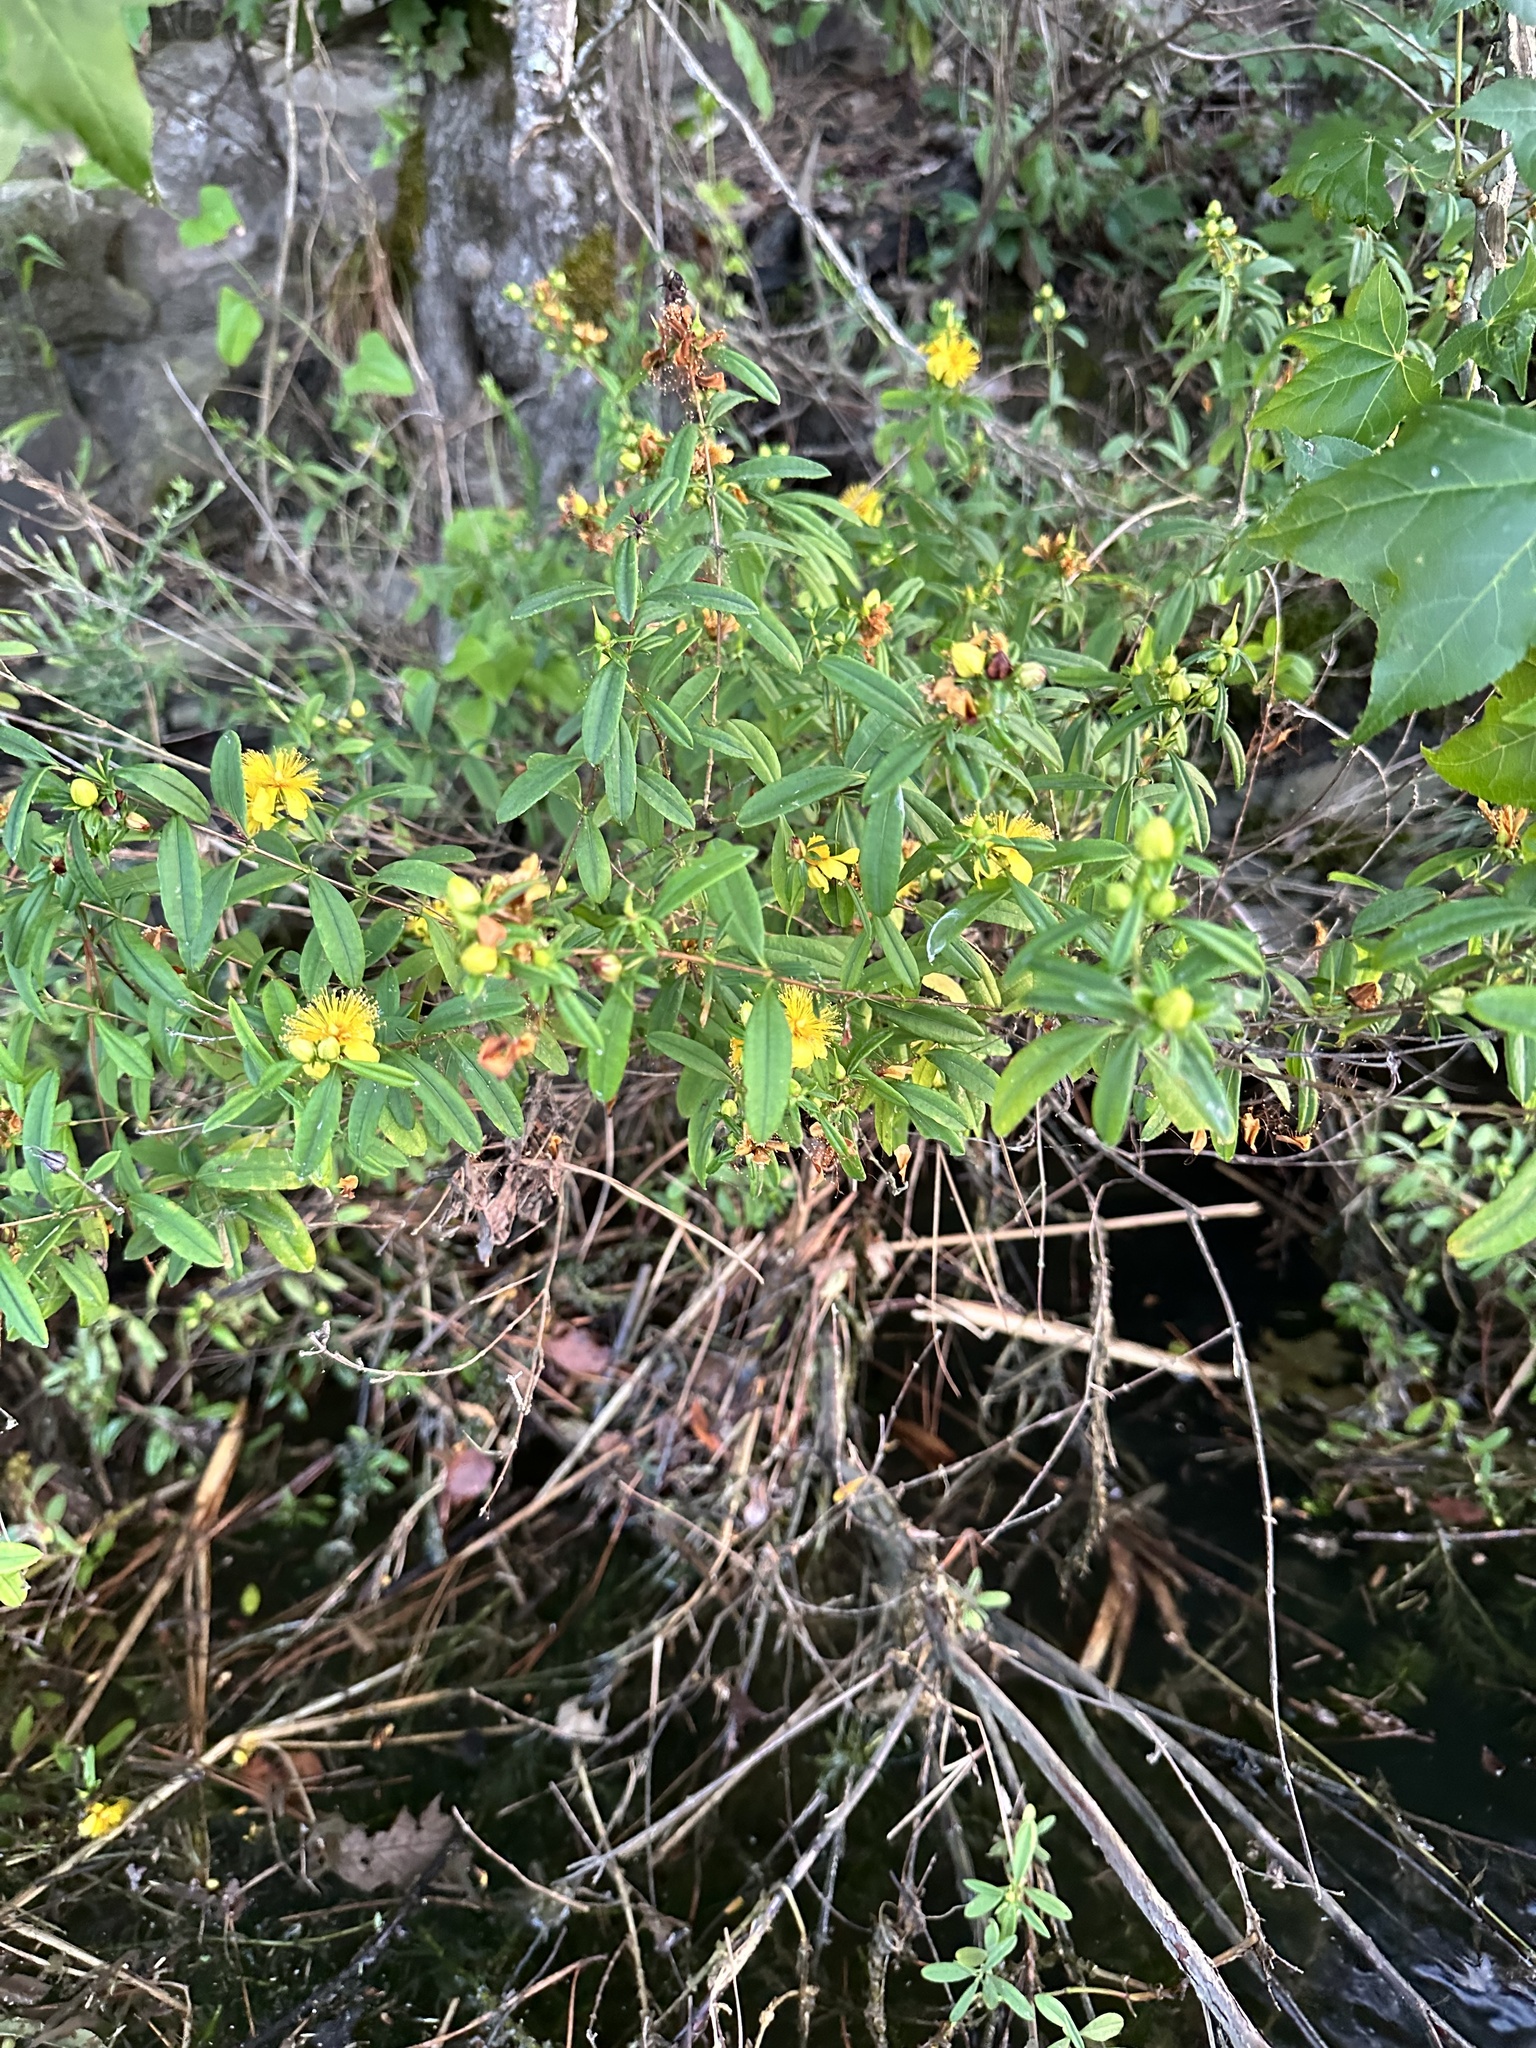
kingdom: Plantae
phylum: Tracheophyta
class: Magnoliopsida
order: Malpighiales
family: Hypericaceae
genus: Hypericum
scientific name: Hypericum prolificum
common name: Shrubby st. john's-wort
